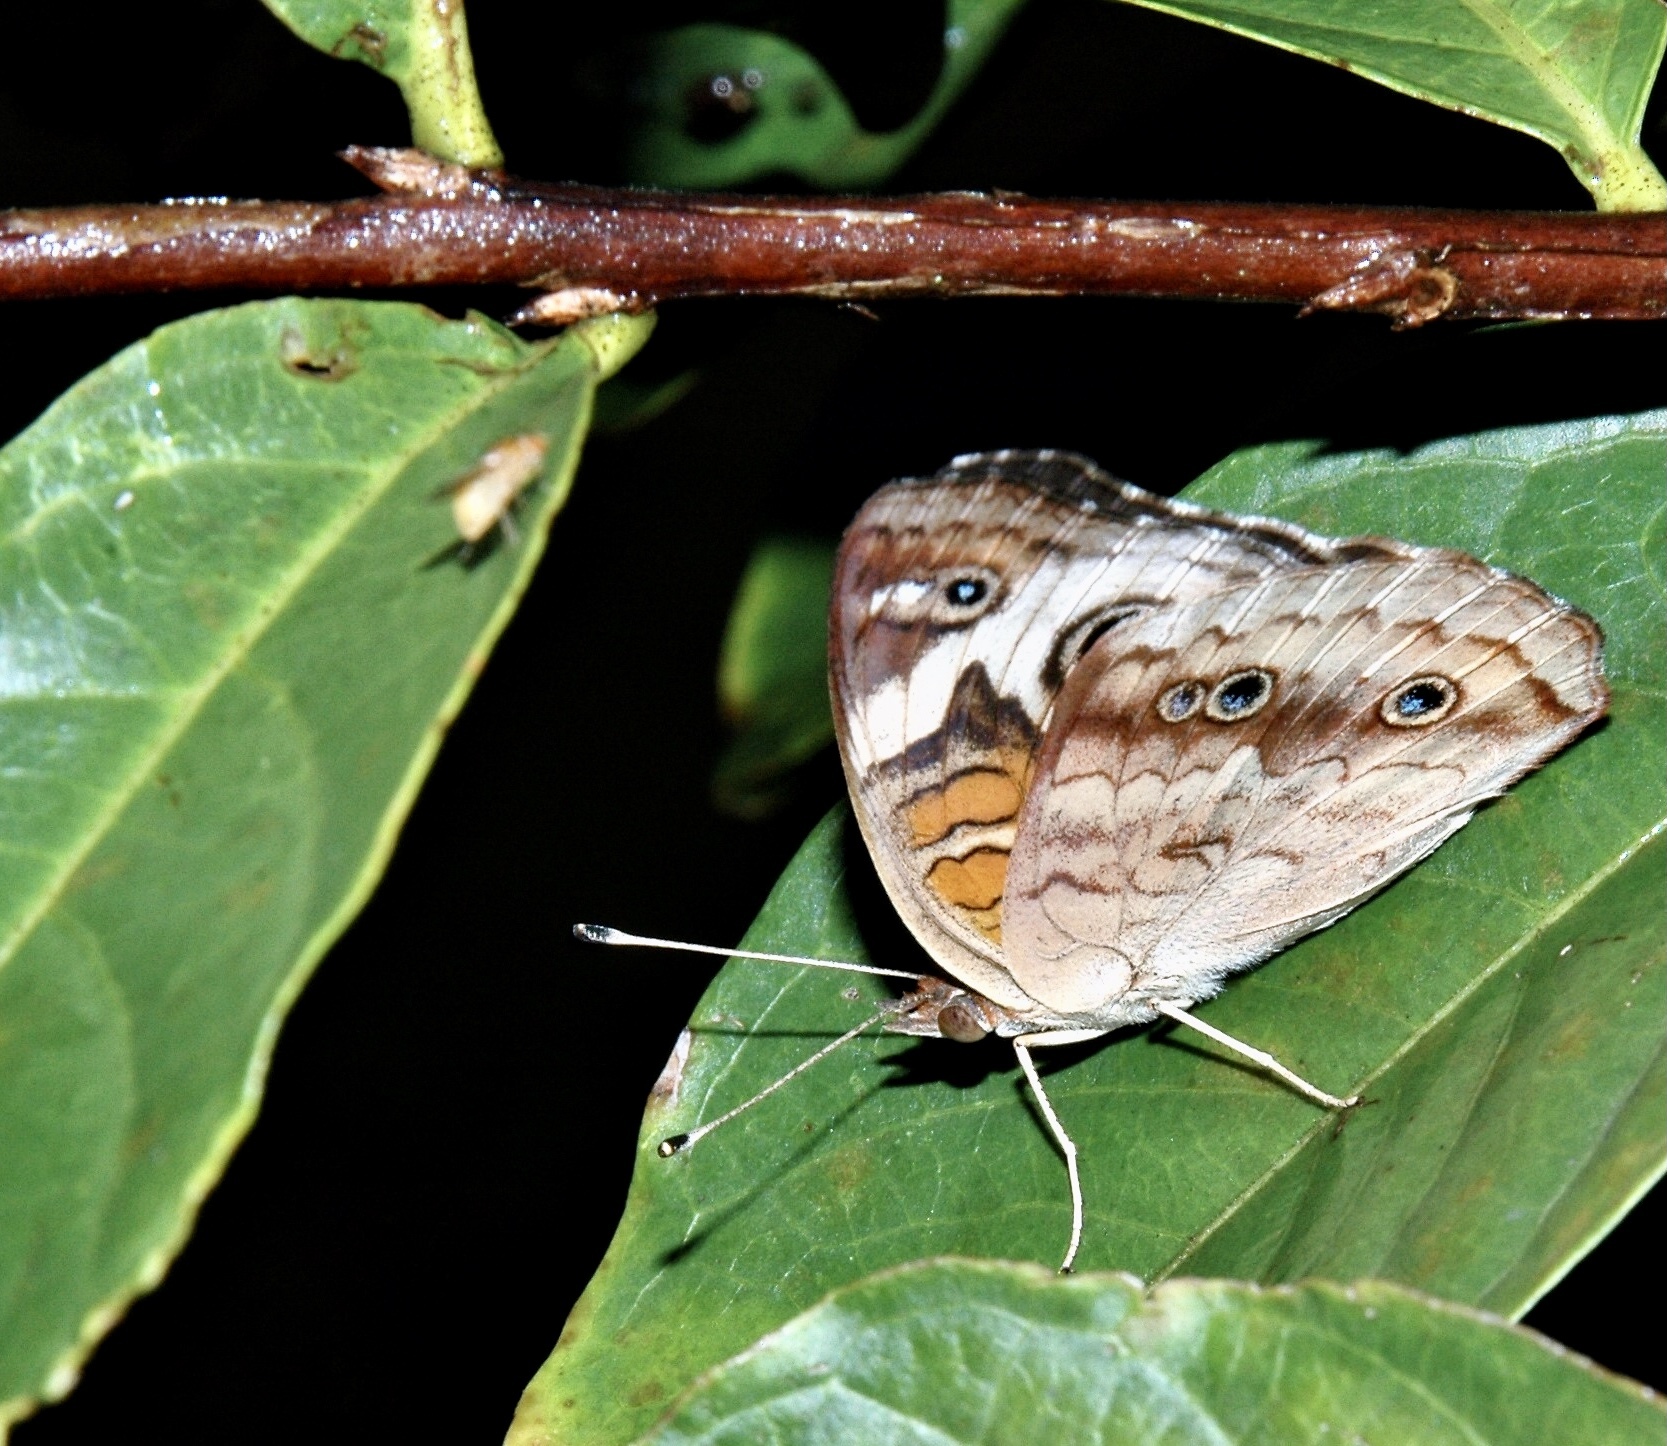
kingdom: Animalia
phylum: Arthropoda
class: Insecta
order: Lepidoptera
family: Nymphalidae
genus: Junonia
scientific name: Junonia coenia
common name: Common buckeye
